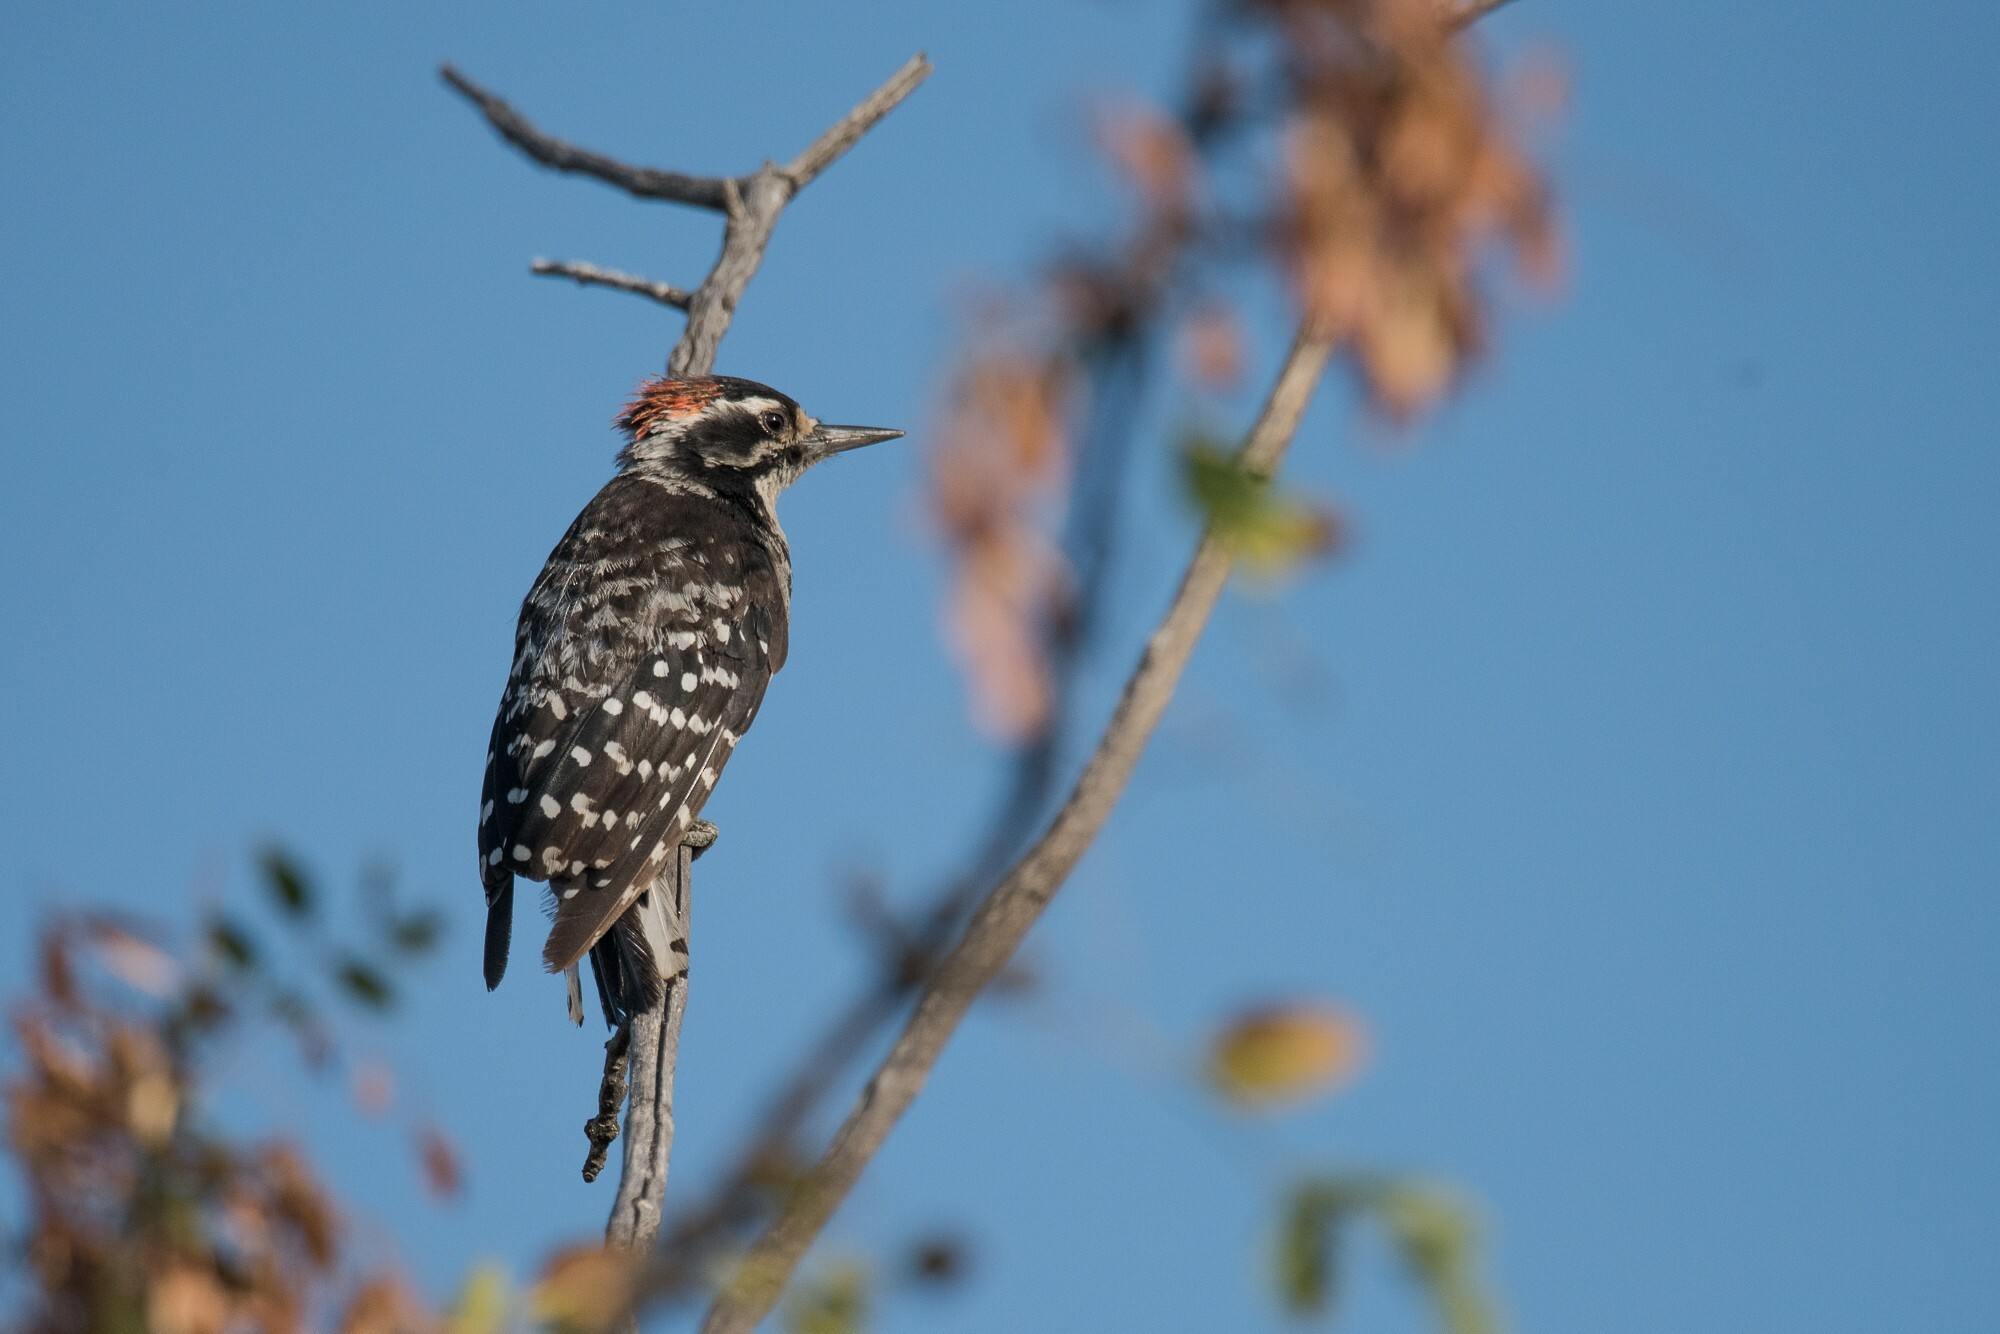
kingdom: Animalia
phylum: Chordata
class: Aves
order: Piciformes
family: Picidae
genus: Dryobates
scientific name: Dryobates nuttallii
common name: Nuttall's woodpecker
